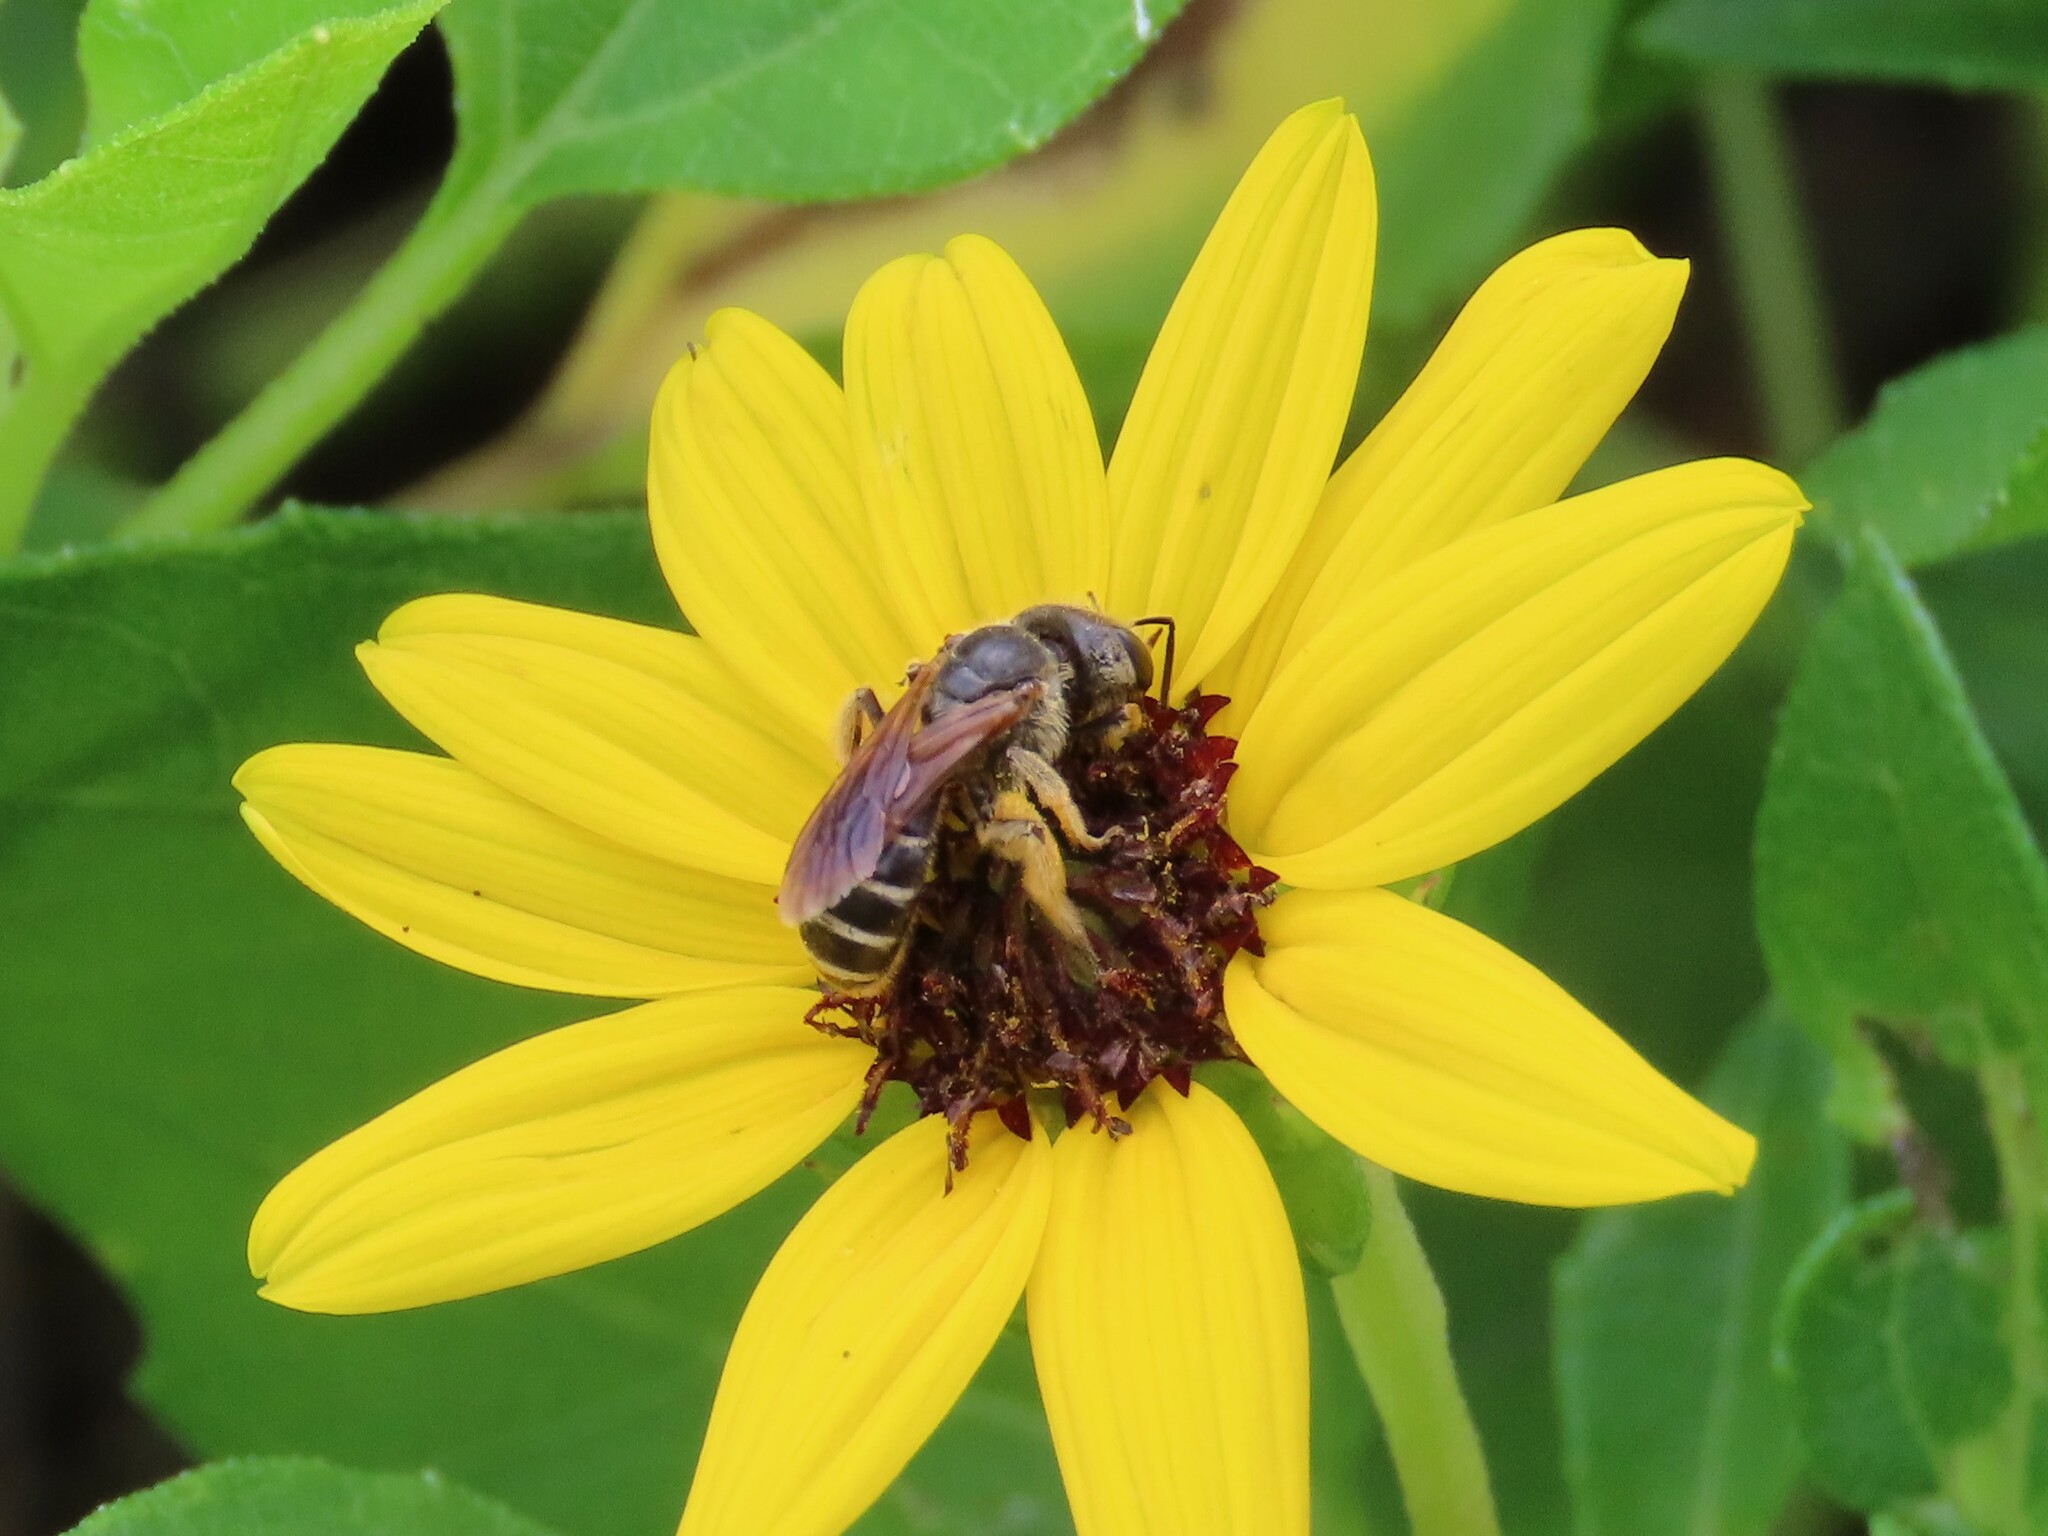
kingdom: Animalia
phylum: Arthropoda
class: Insecta
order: Hymenoptera
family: Halictidae
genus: Halictus
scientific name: Halictus poeyi
